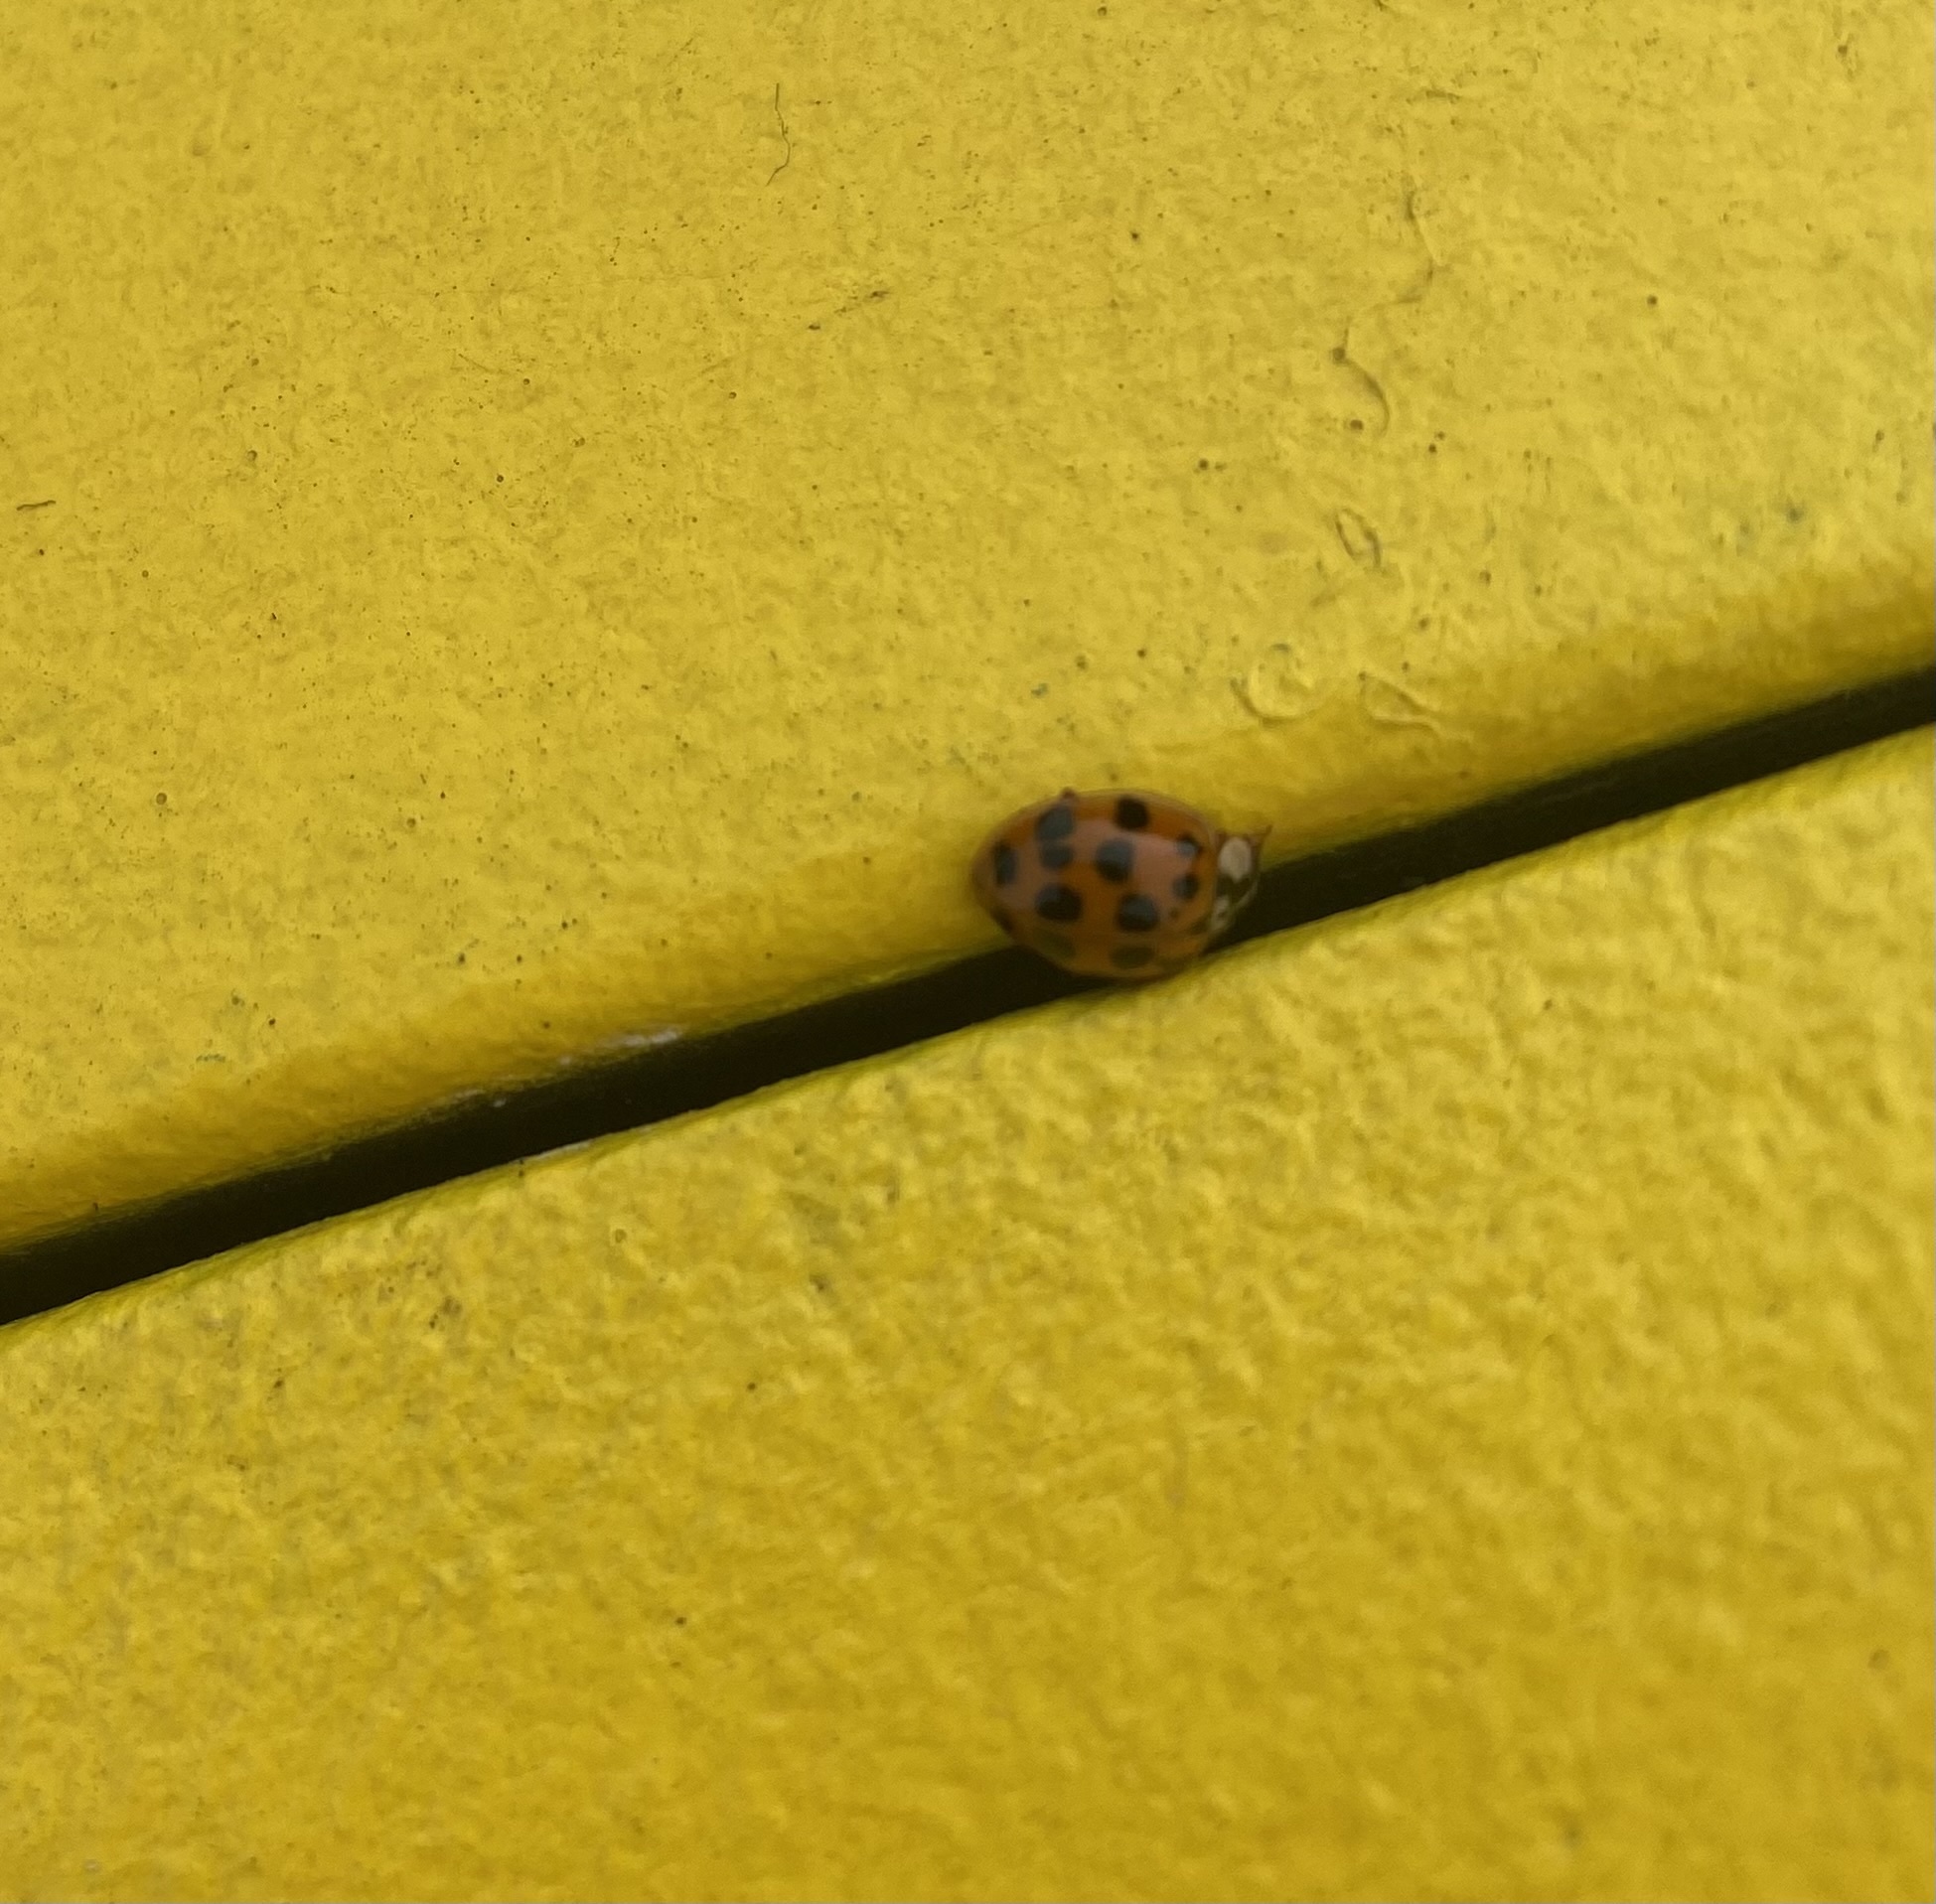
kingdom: Animalia
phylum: Arthropoda
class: Insecta
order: Coleoptera
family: Coccinellidae
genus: Harmonia
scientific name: Harmonia axyridis
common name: Harlequin ladybird
